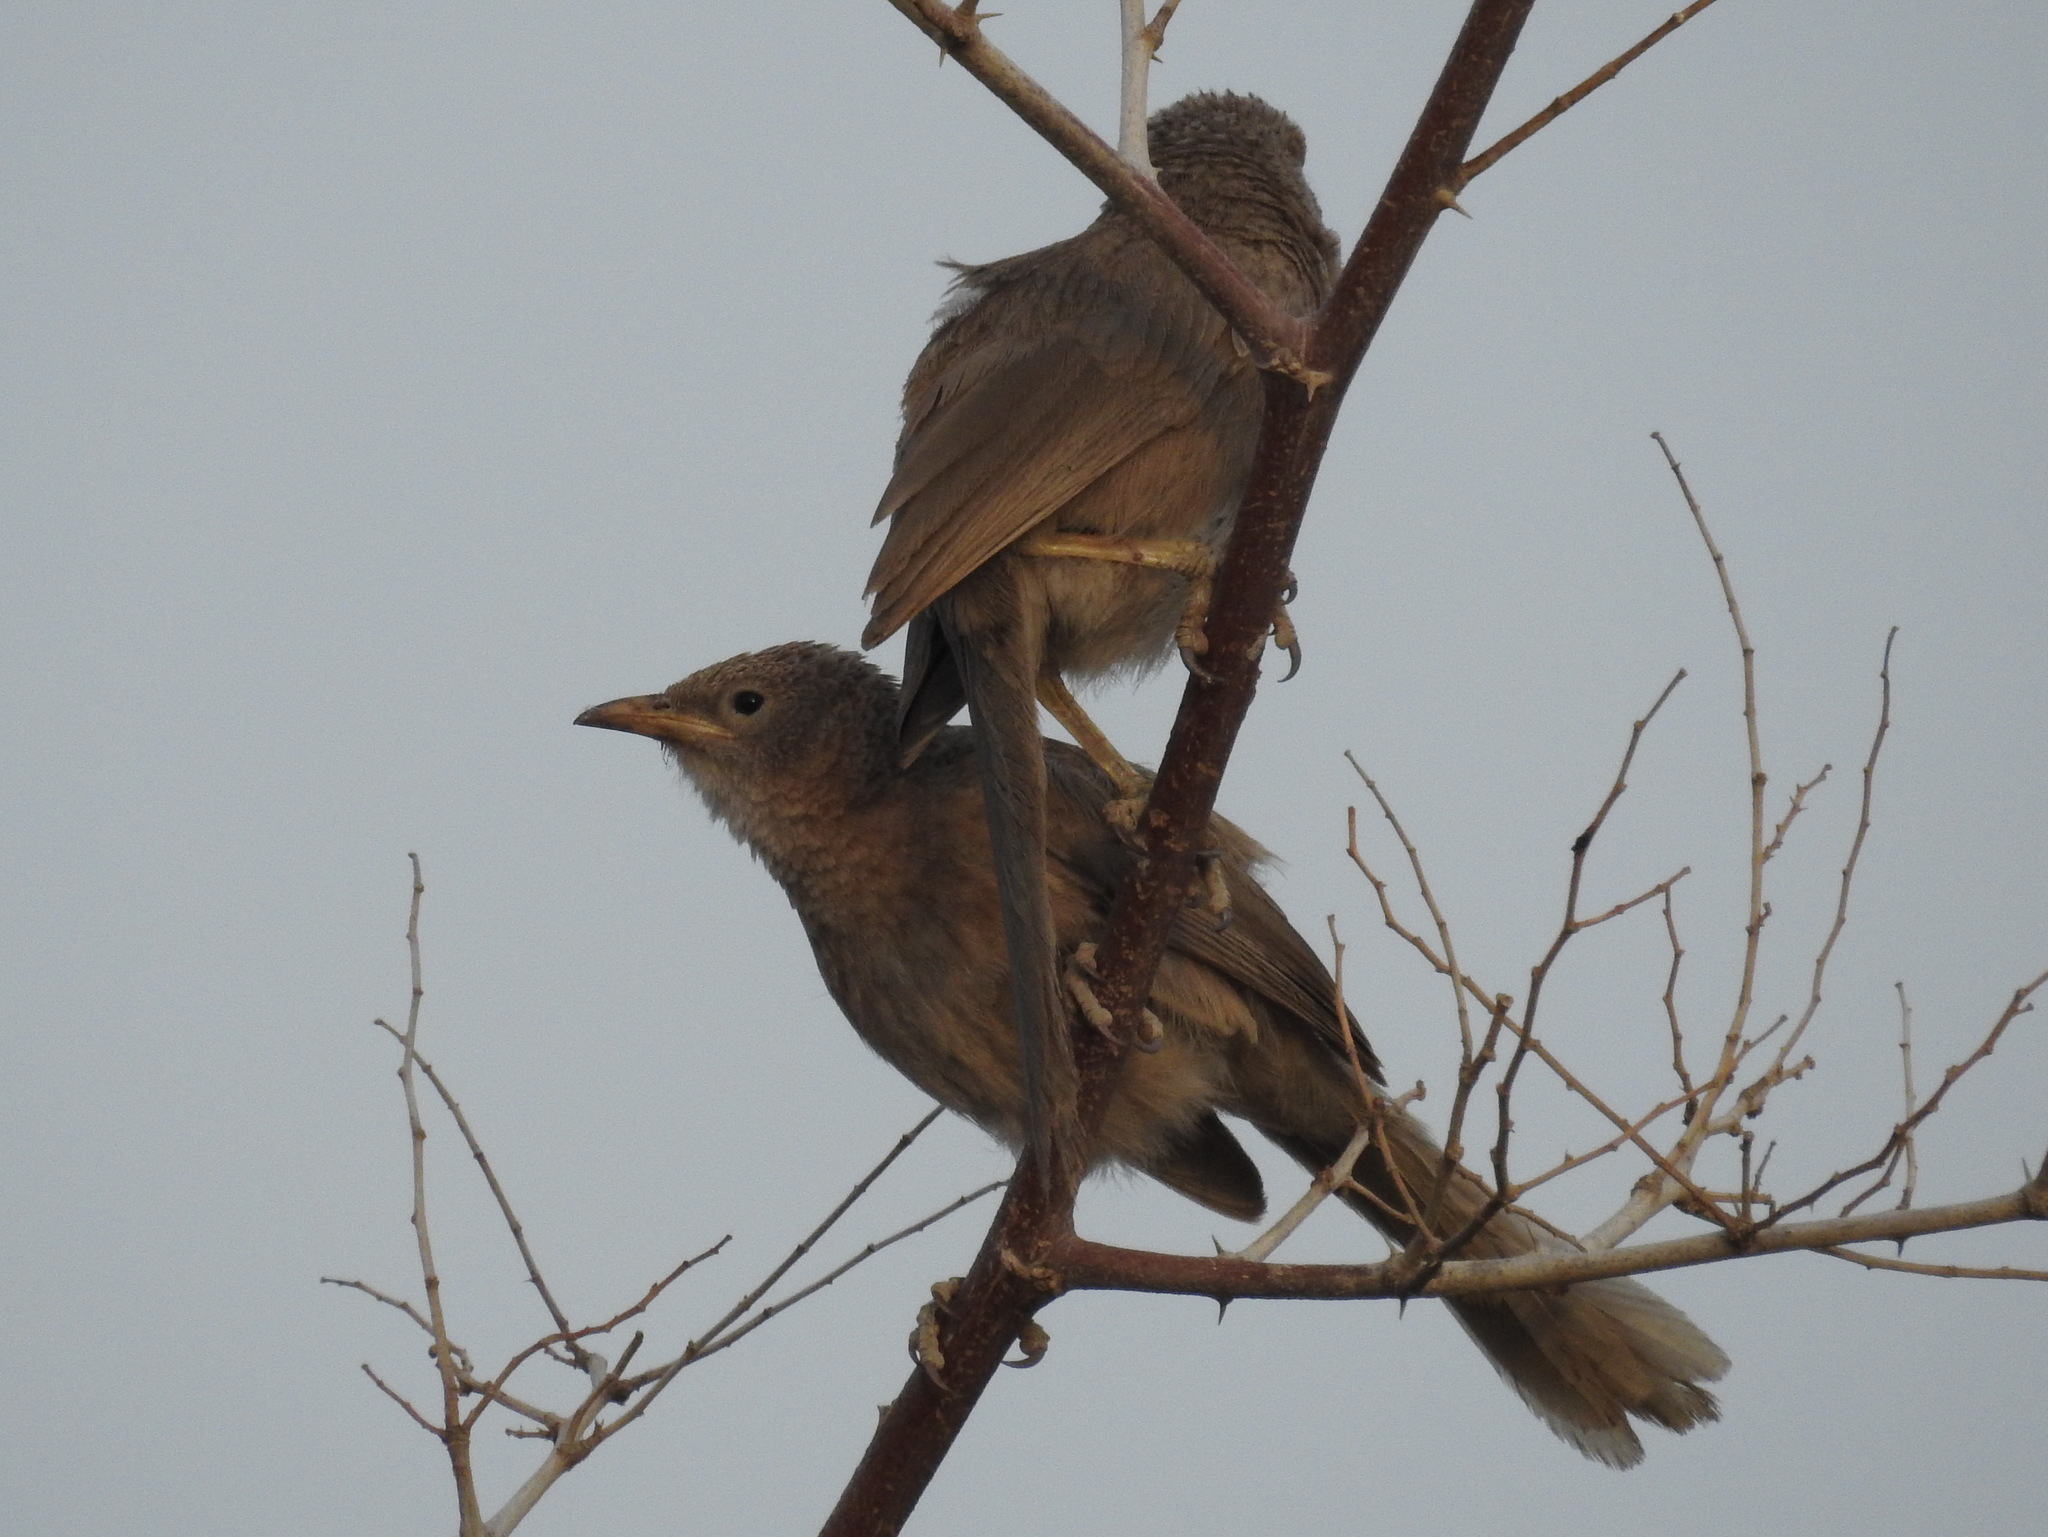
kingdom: Animalia
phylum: Chordata
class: Aves
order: Passeriformes
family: Leiothrichidae
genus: Turdoides
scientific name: Turdoides squamiceps
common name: Arabian babbler
